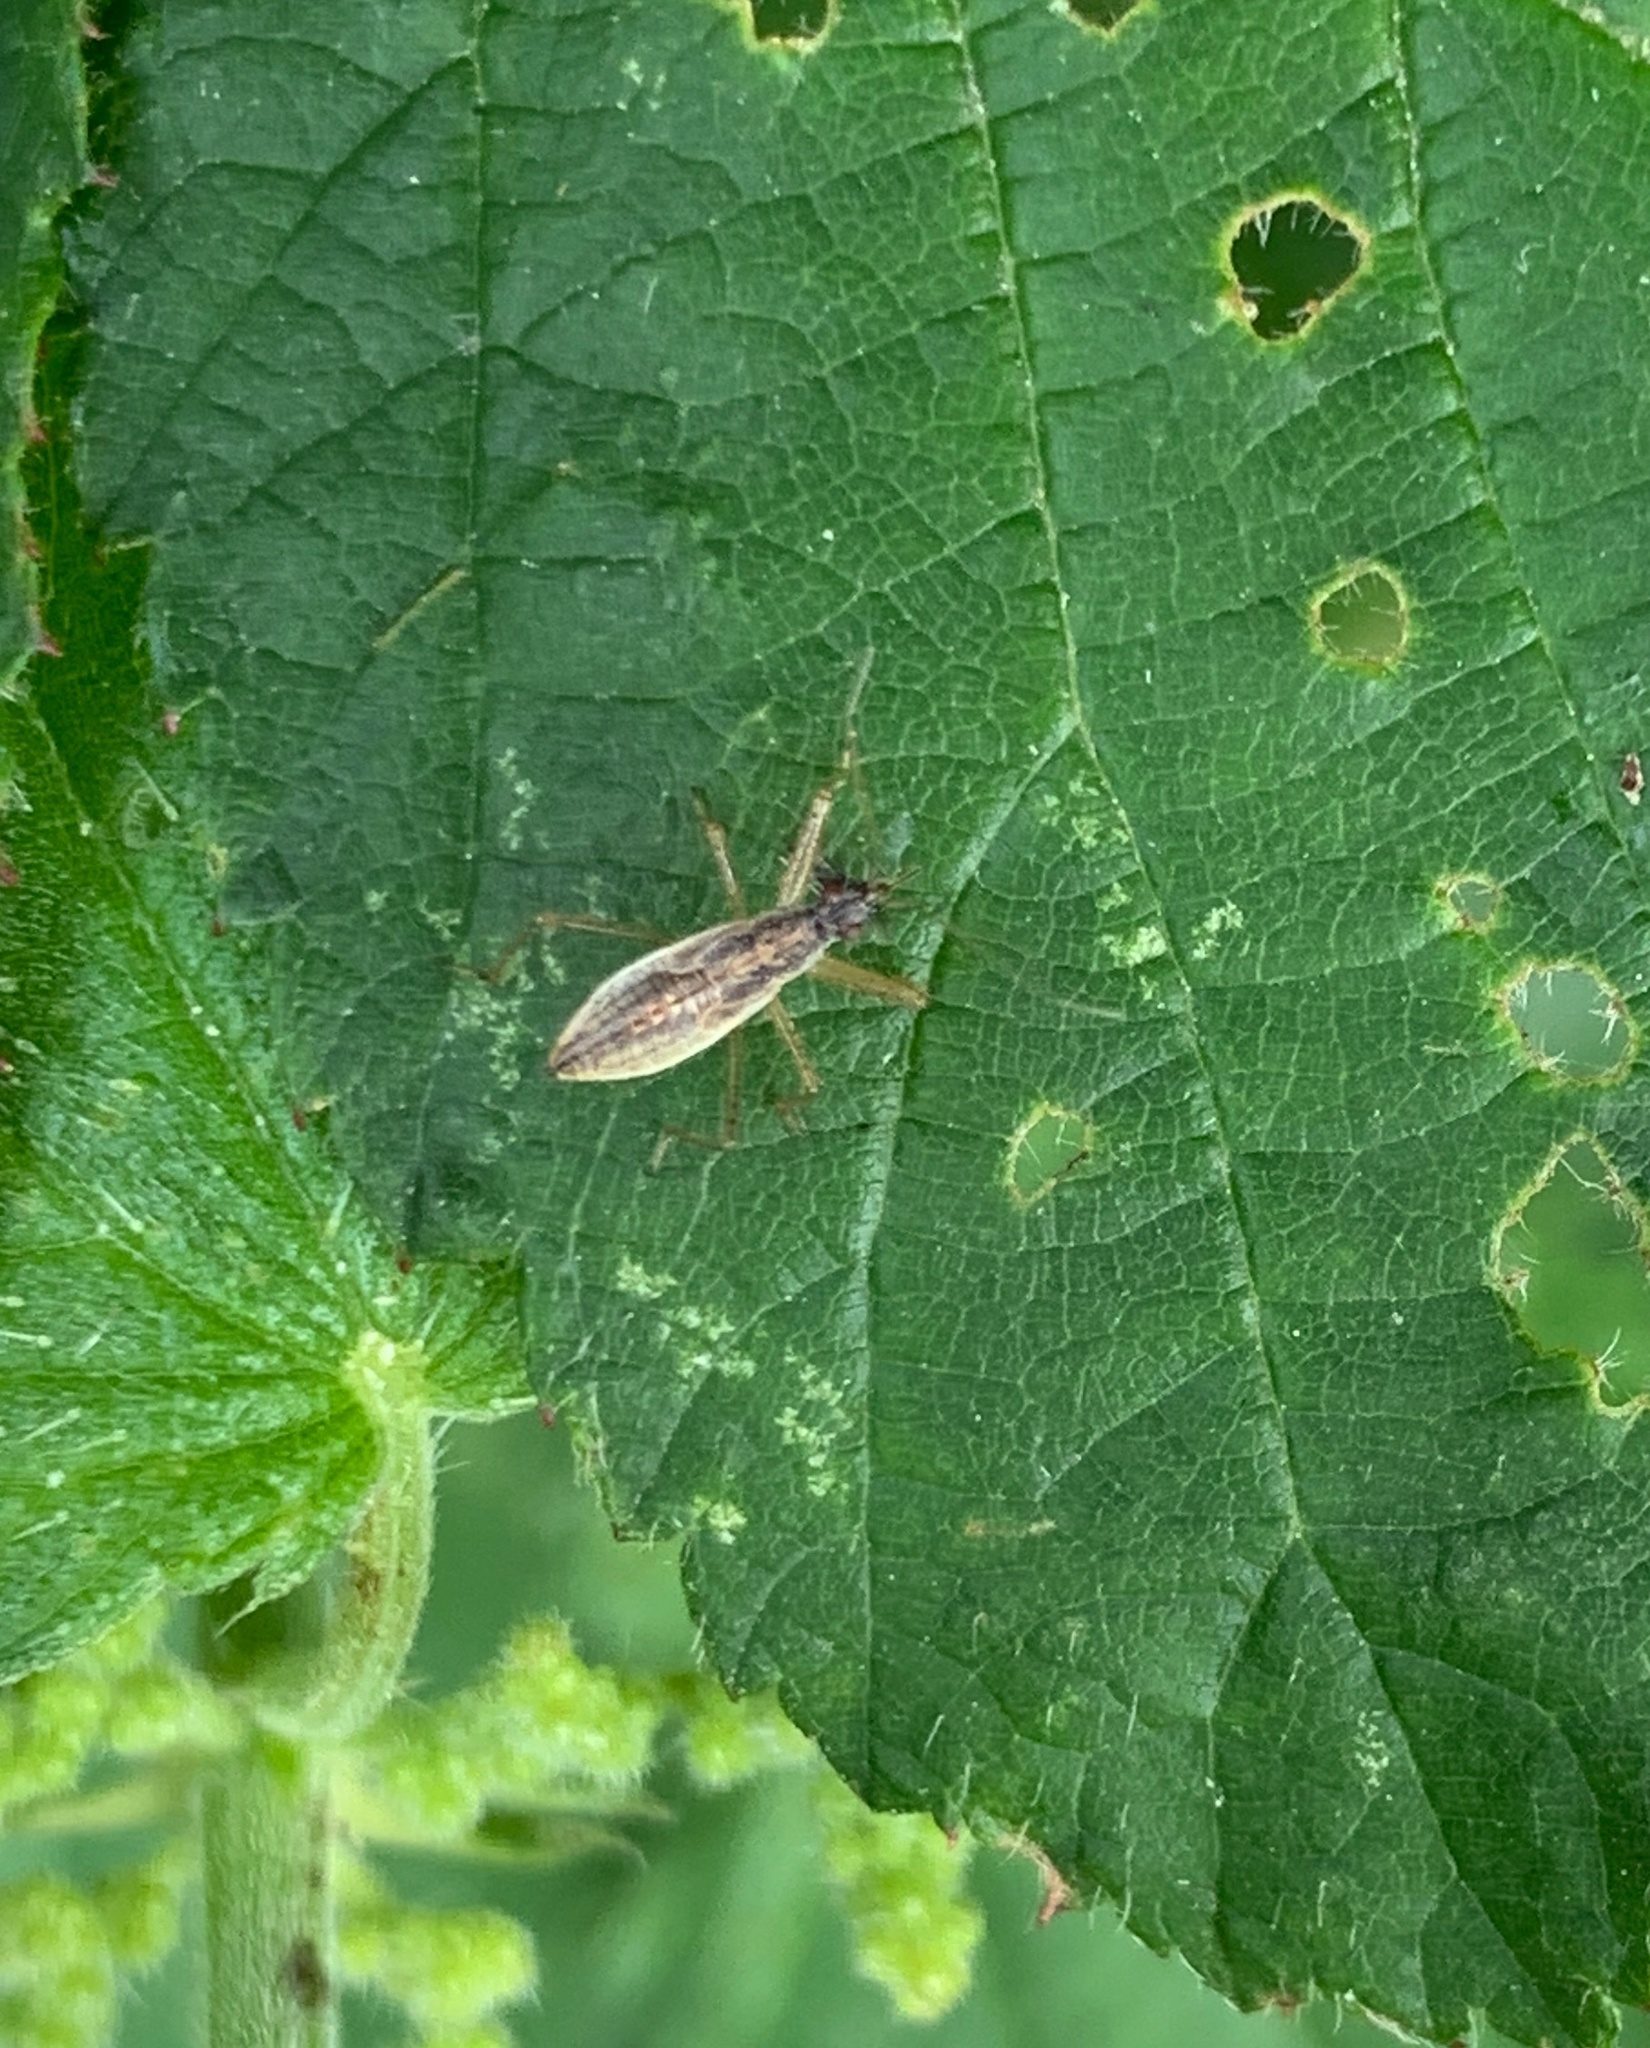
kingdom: Animalia
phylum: Arthropoda
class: Insecta
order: Hemiptera
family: Nabidae
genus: Nabis
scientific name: Nabis
